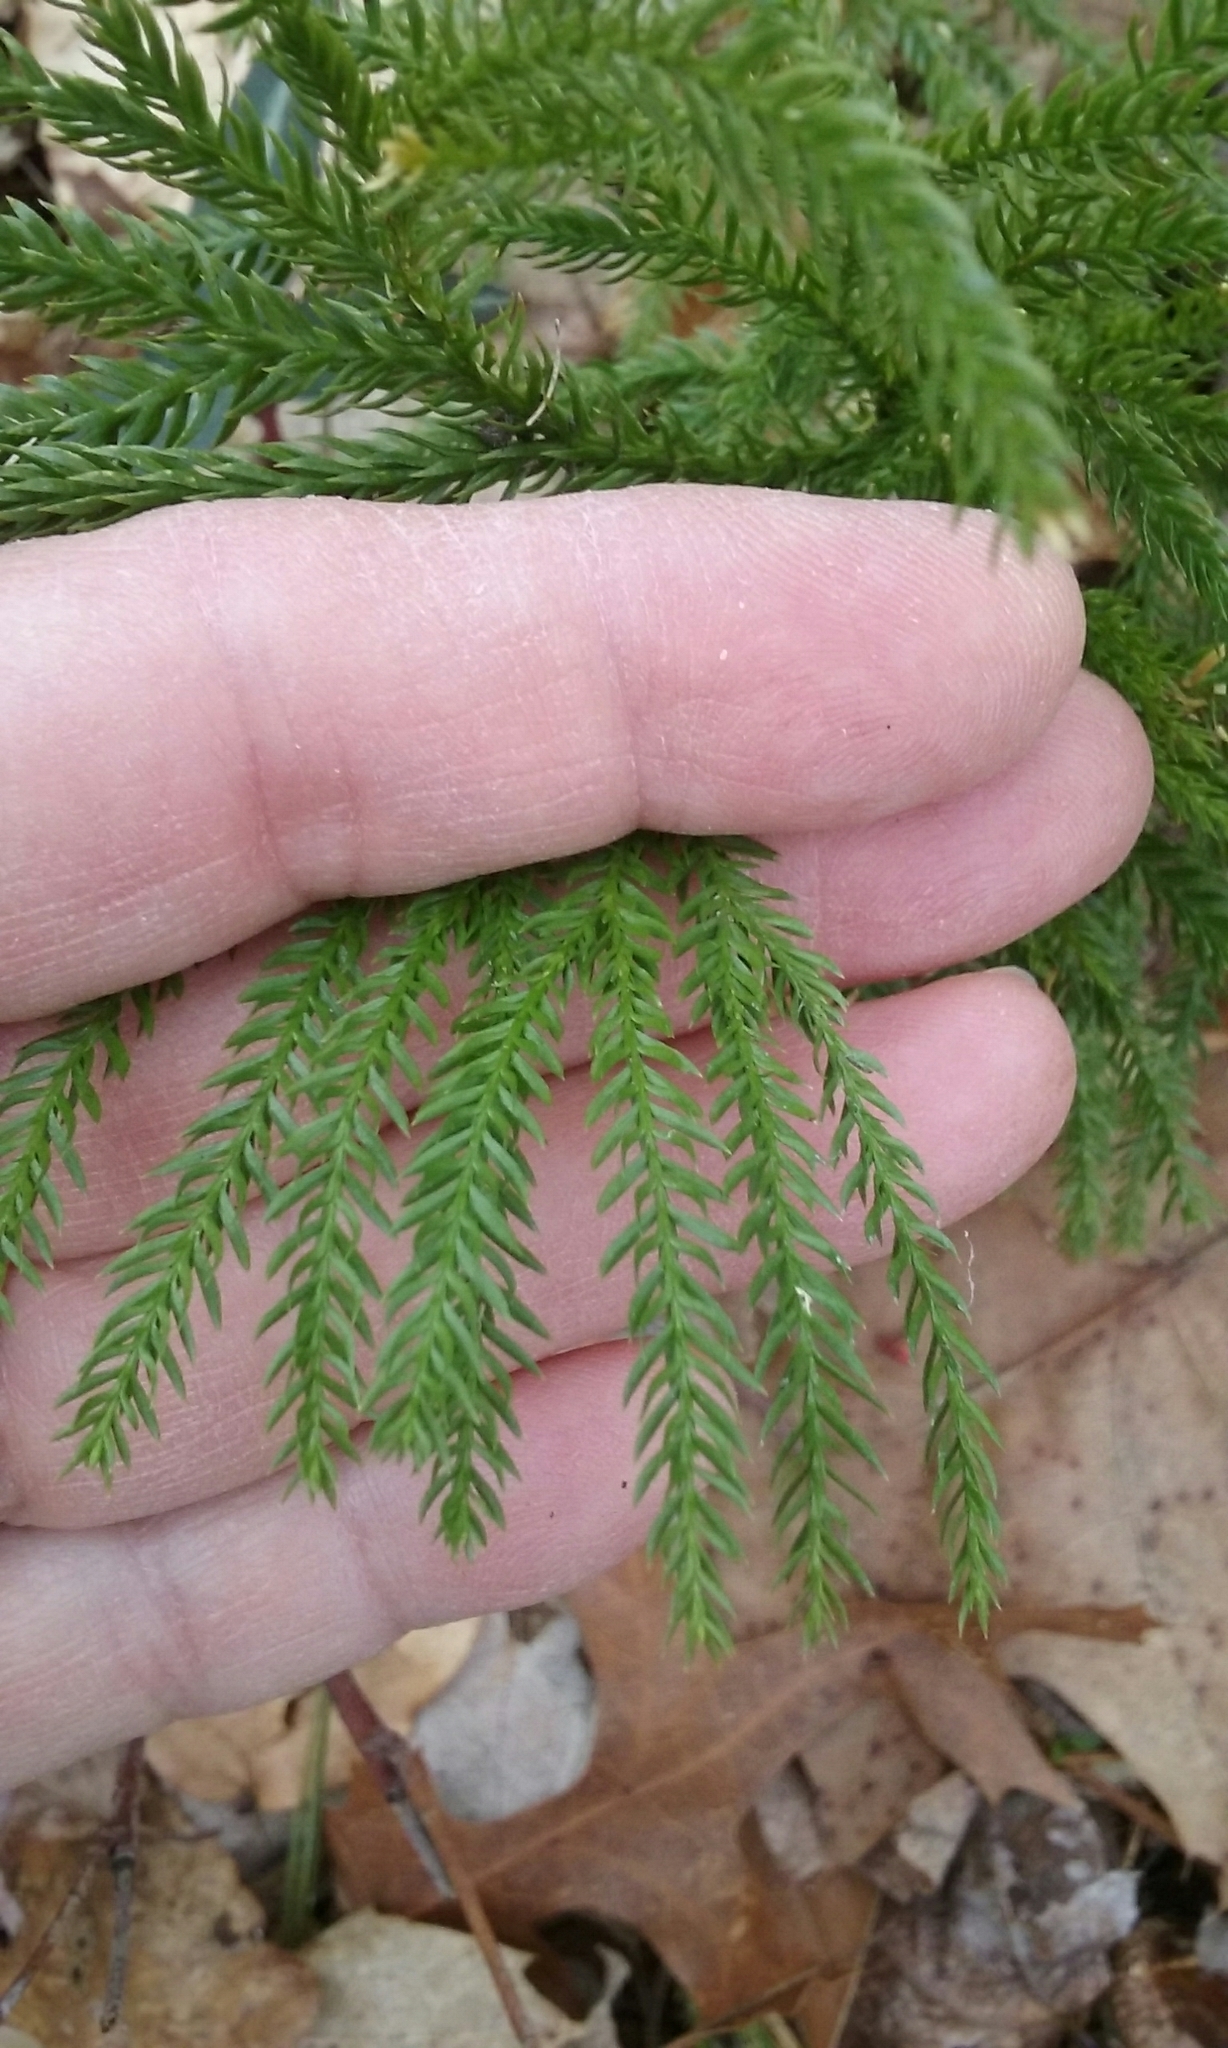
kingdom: Plantae
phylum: Tracheophyta
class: Lycopodiopsida
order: Lycopodiales
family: Lycopodiaceae
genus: Dendrolycopodium
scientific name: Dendrolycopodium obscurum
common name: Common ground-pine
